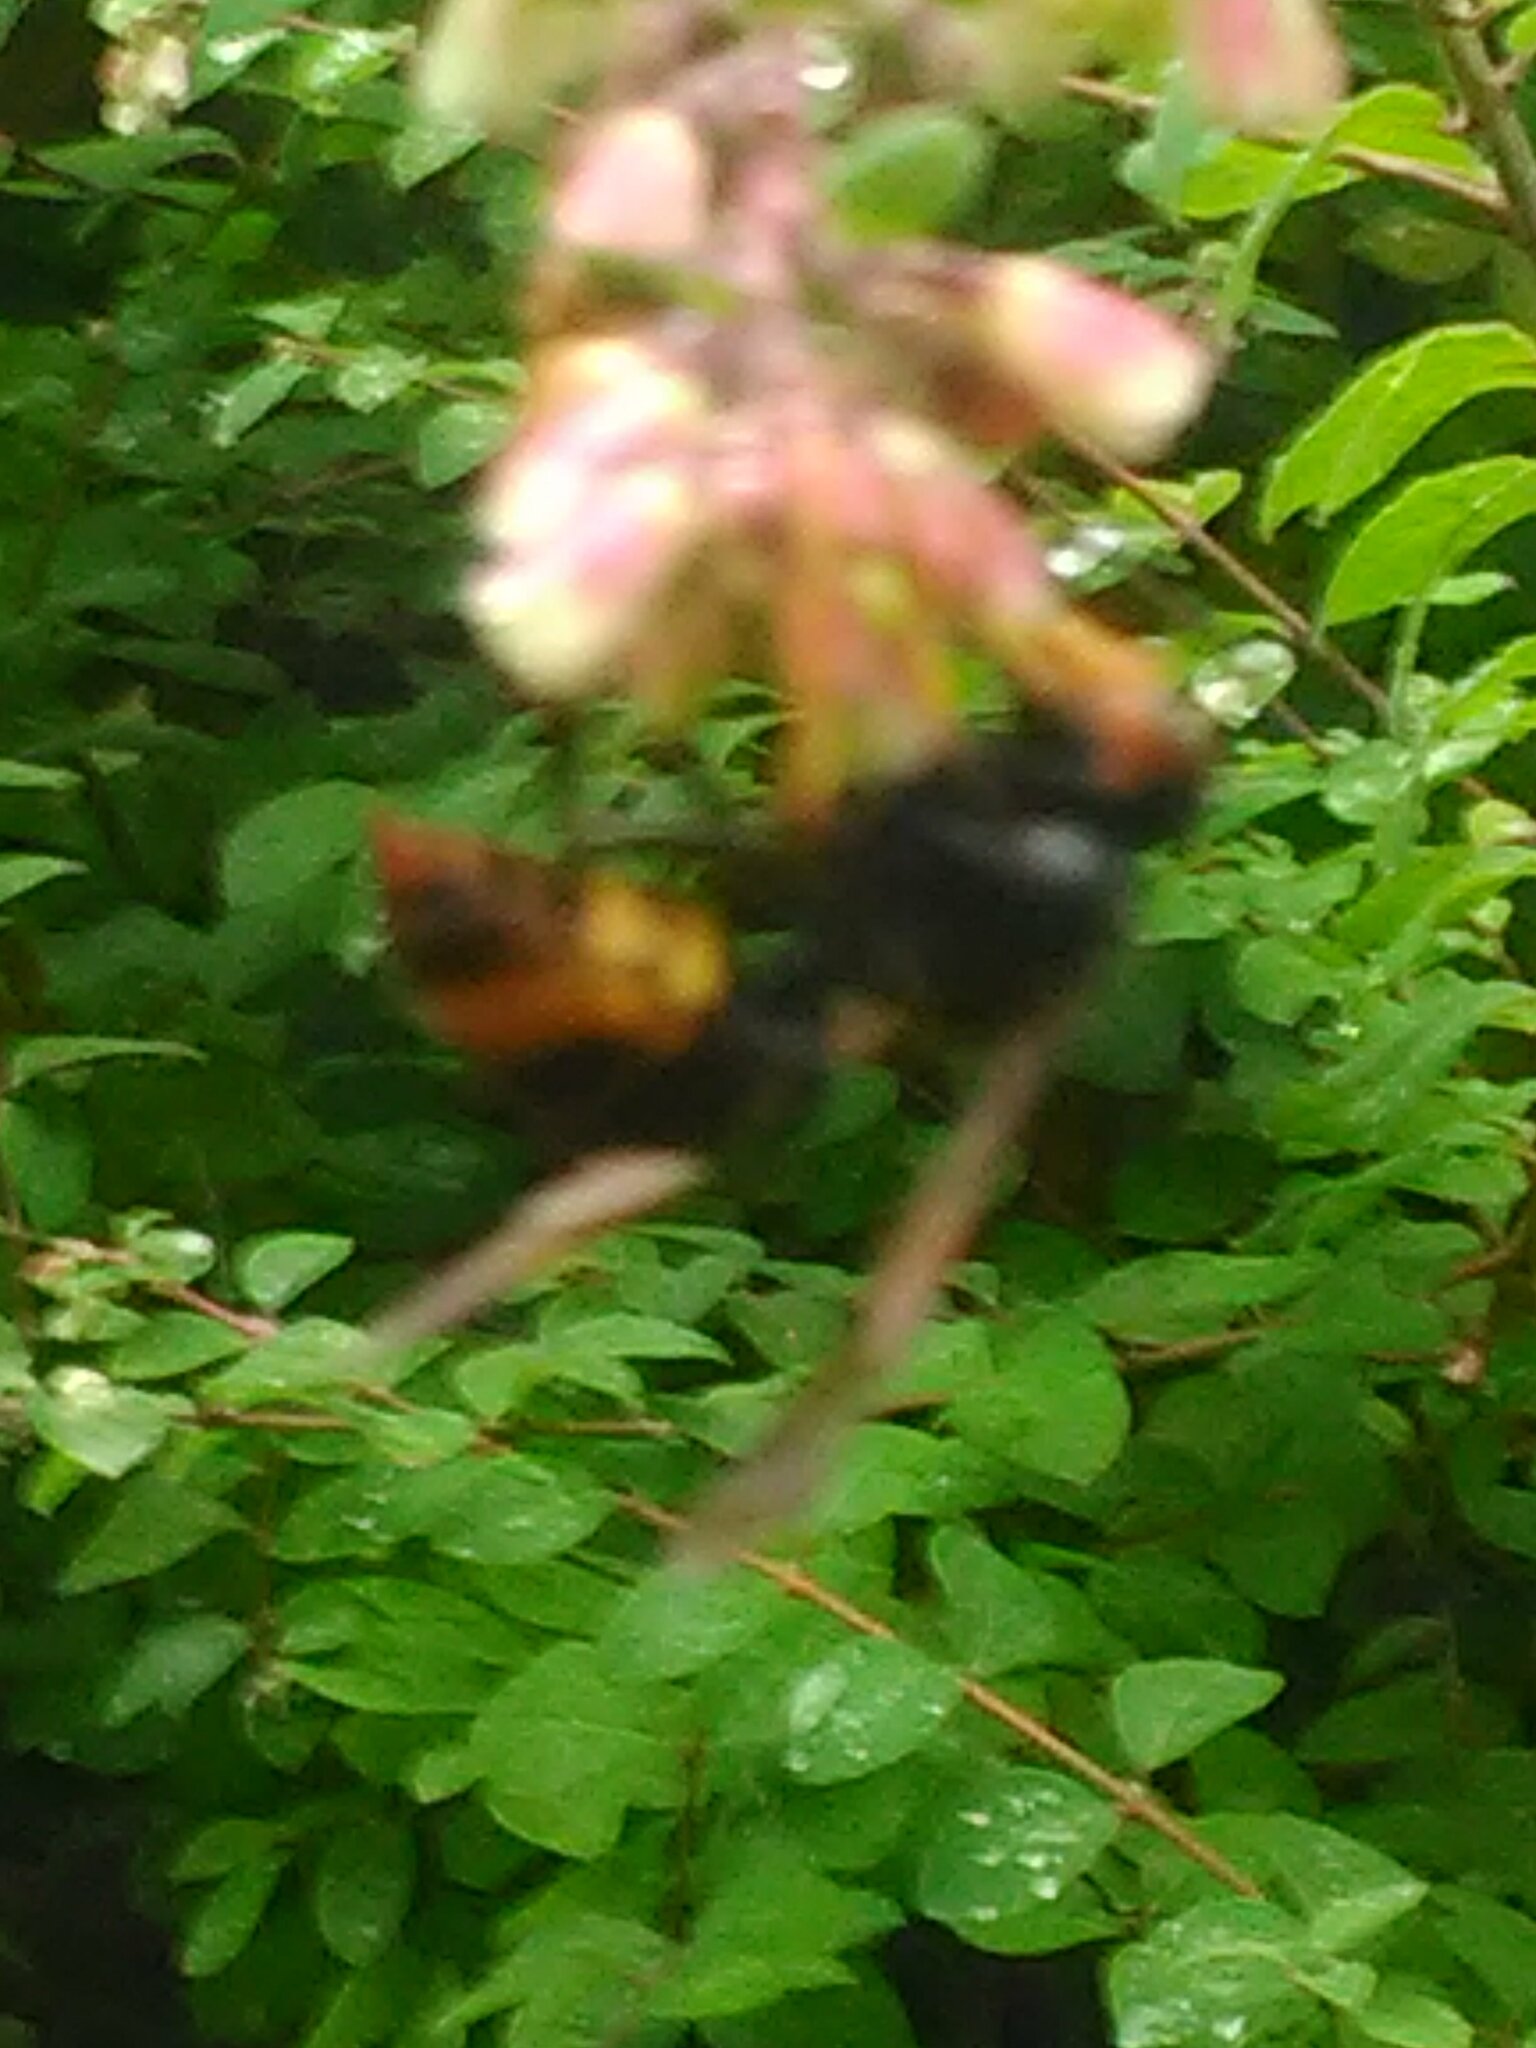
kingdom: Animalia
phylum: Arthropoda
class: Insecta
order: Hymenoptera
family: Vespidae
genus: Vespa
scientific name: Vespa velutina
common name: Asian hornet
